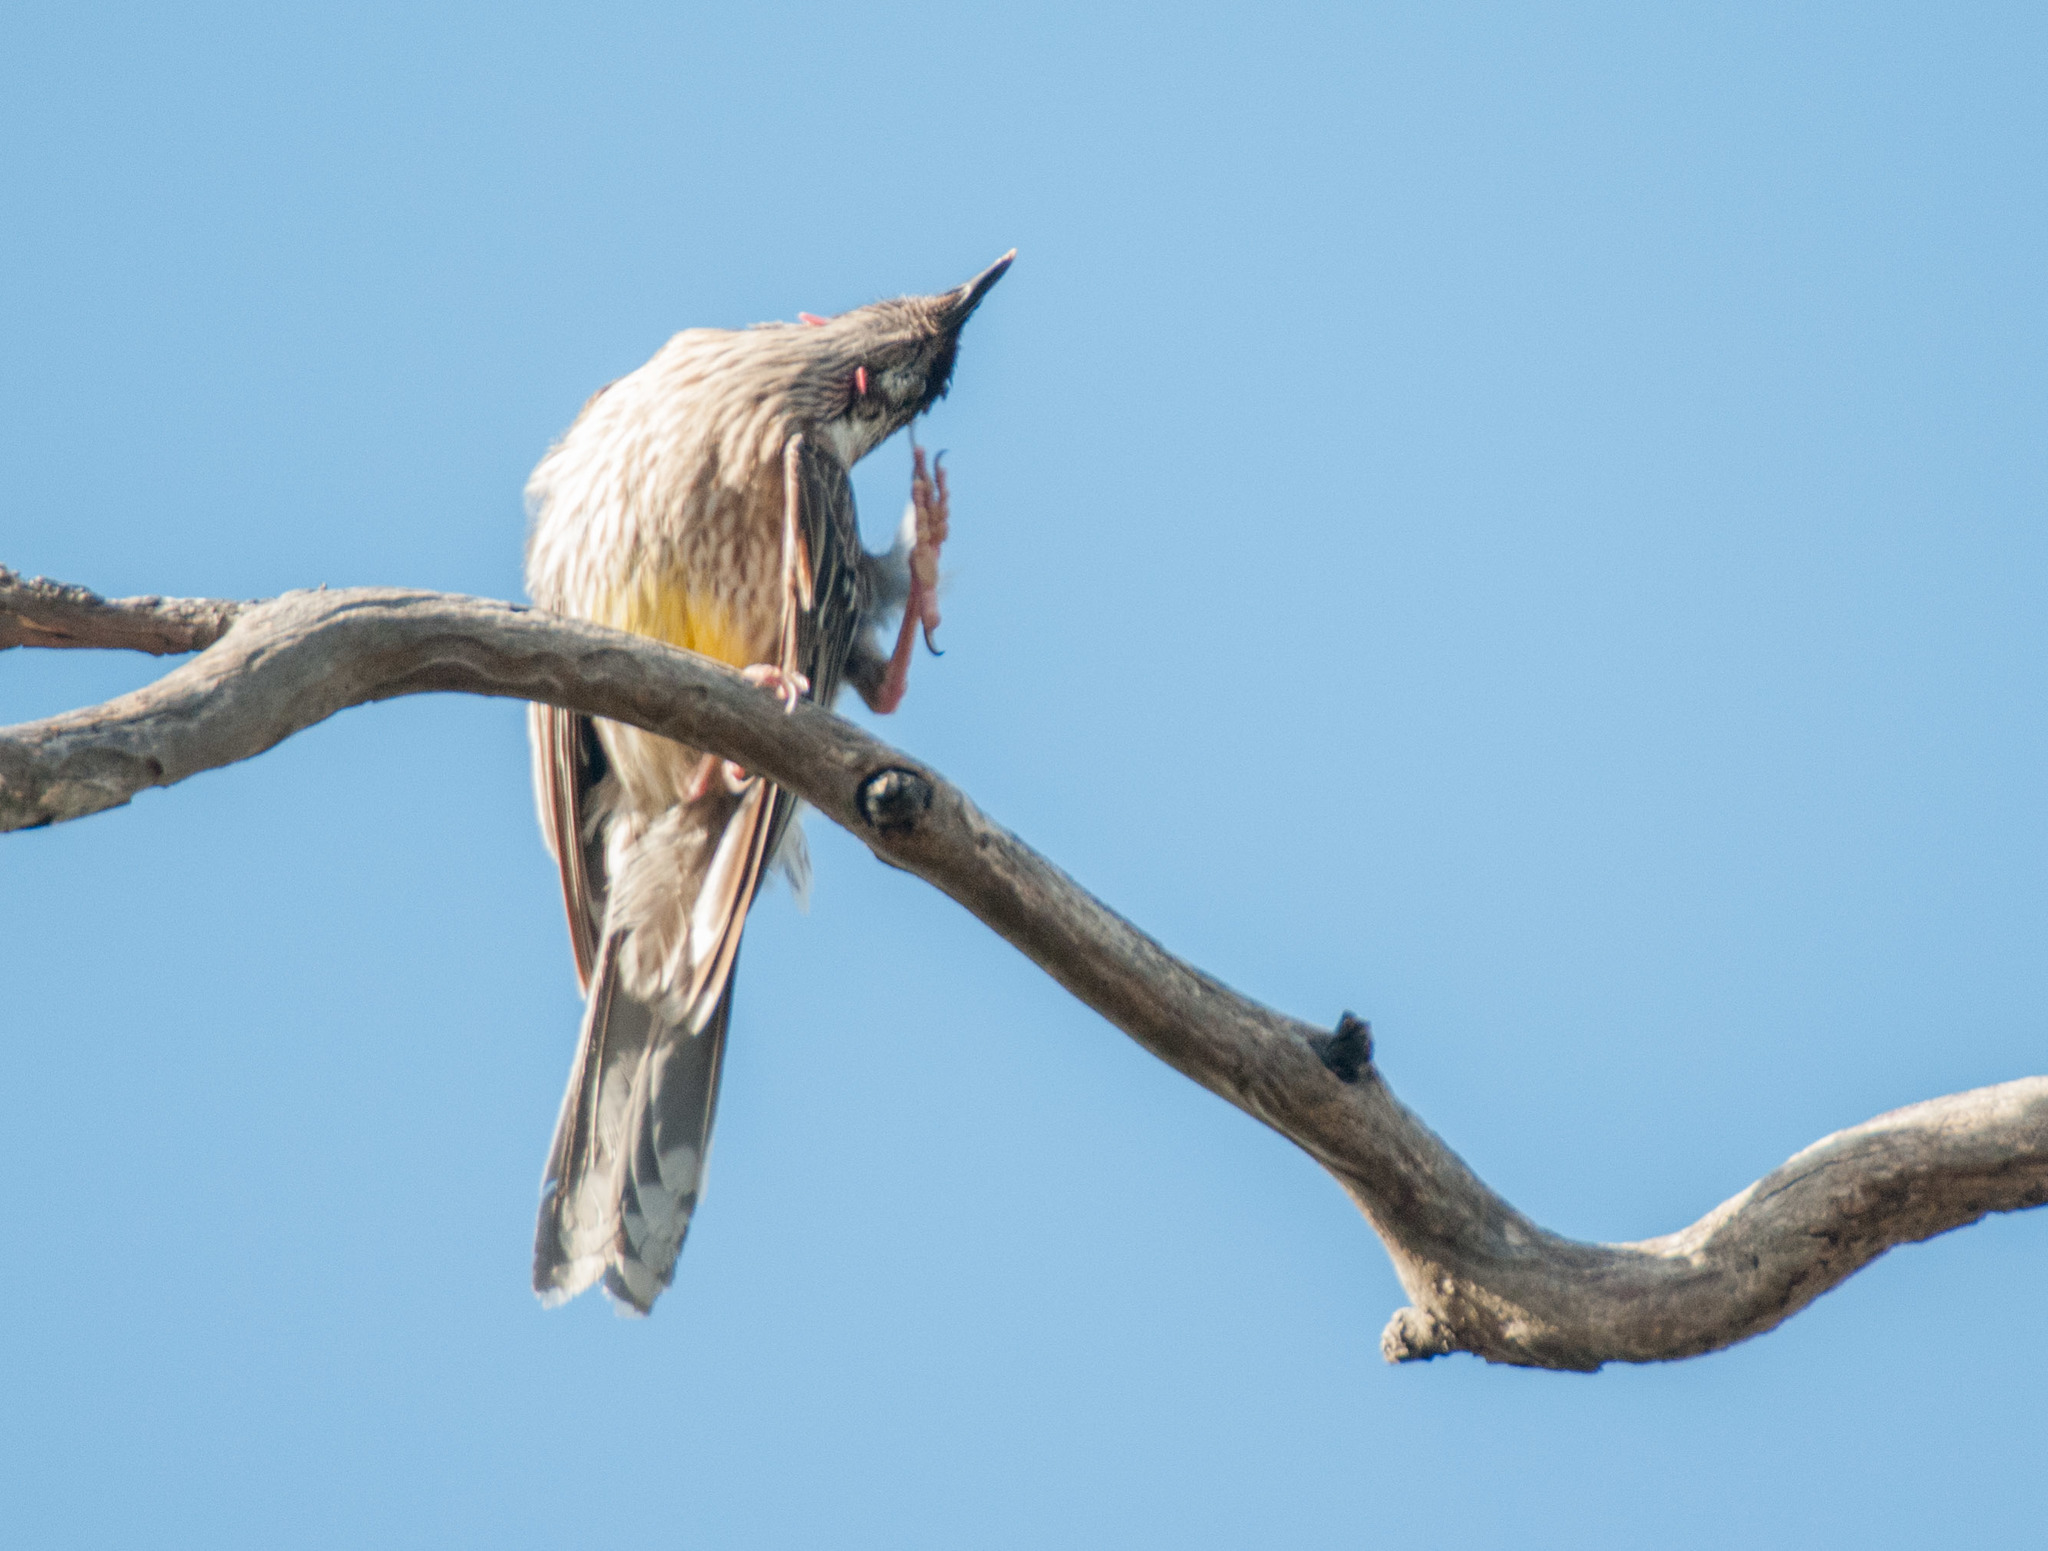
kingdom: Animalia
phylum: Chordata
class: Aves
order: Passeriformes
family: Meliphagidae
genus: Anthochaera
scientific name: Anthochaera carunculata
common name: Red wattlebird
